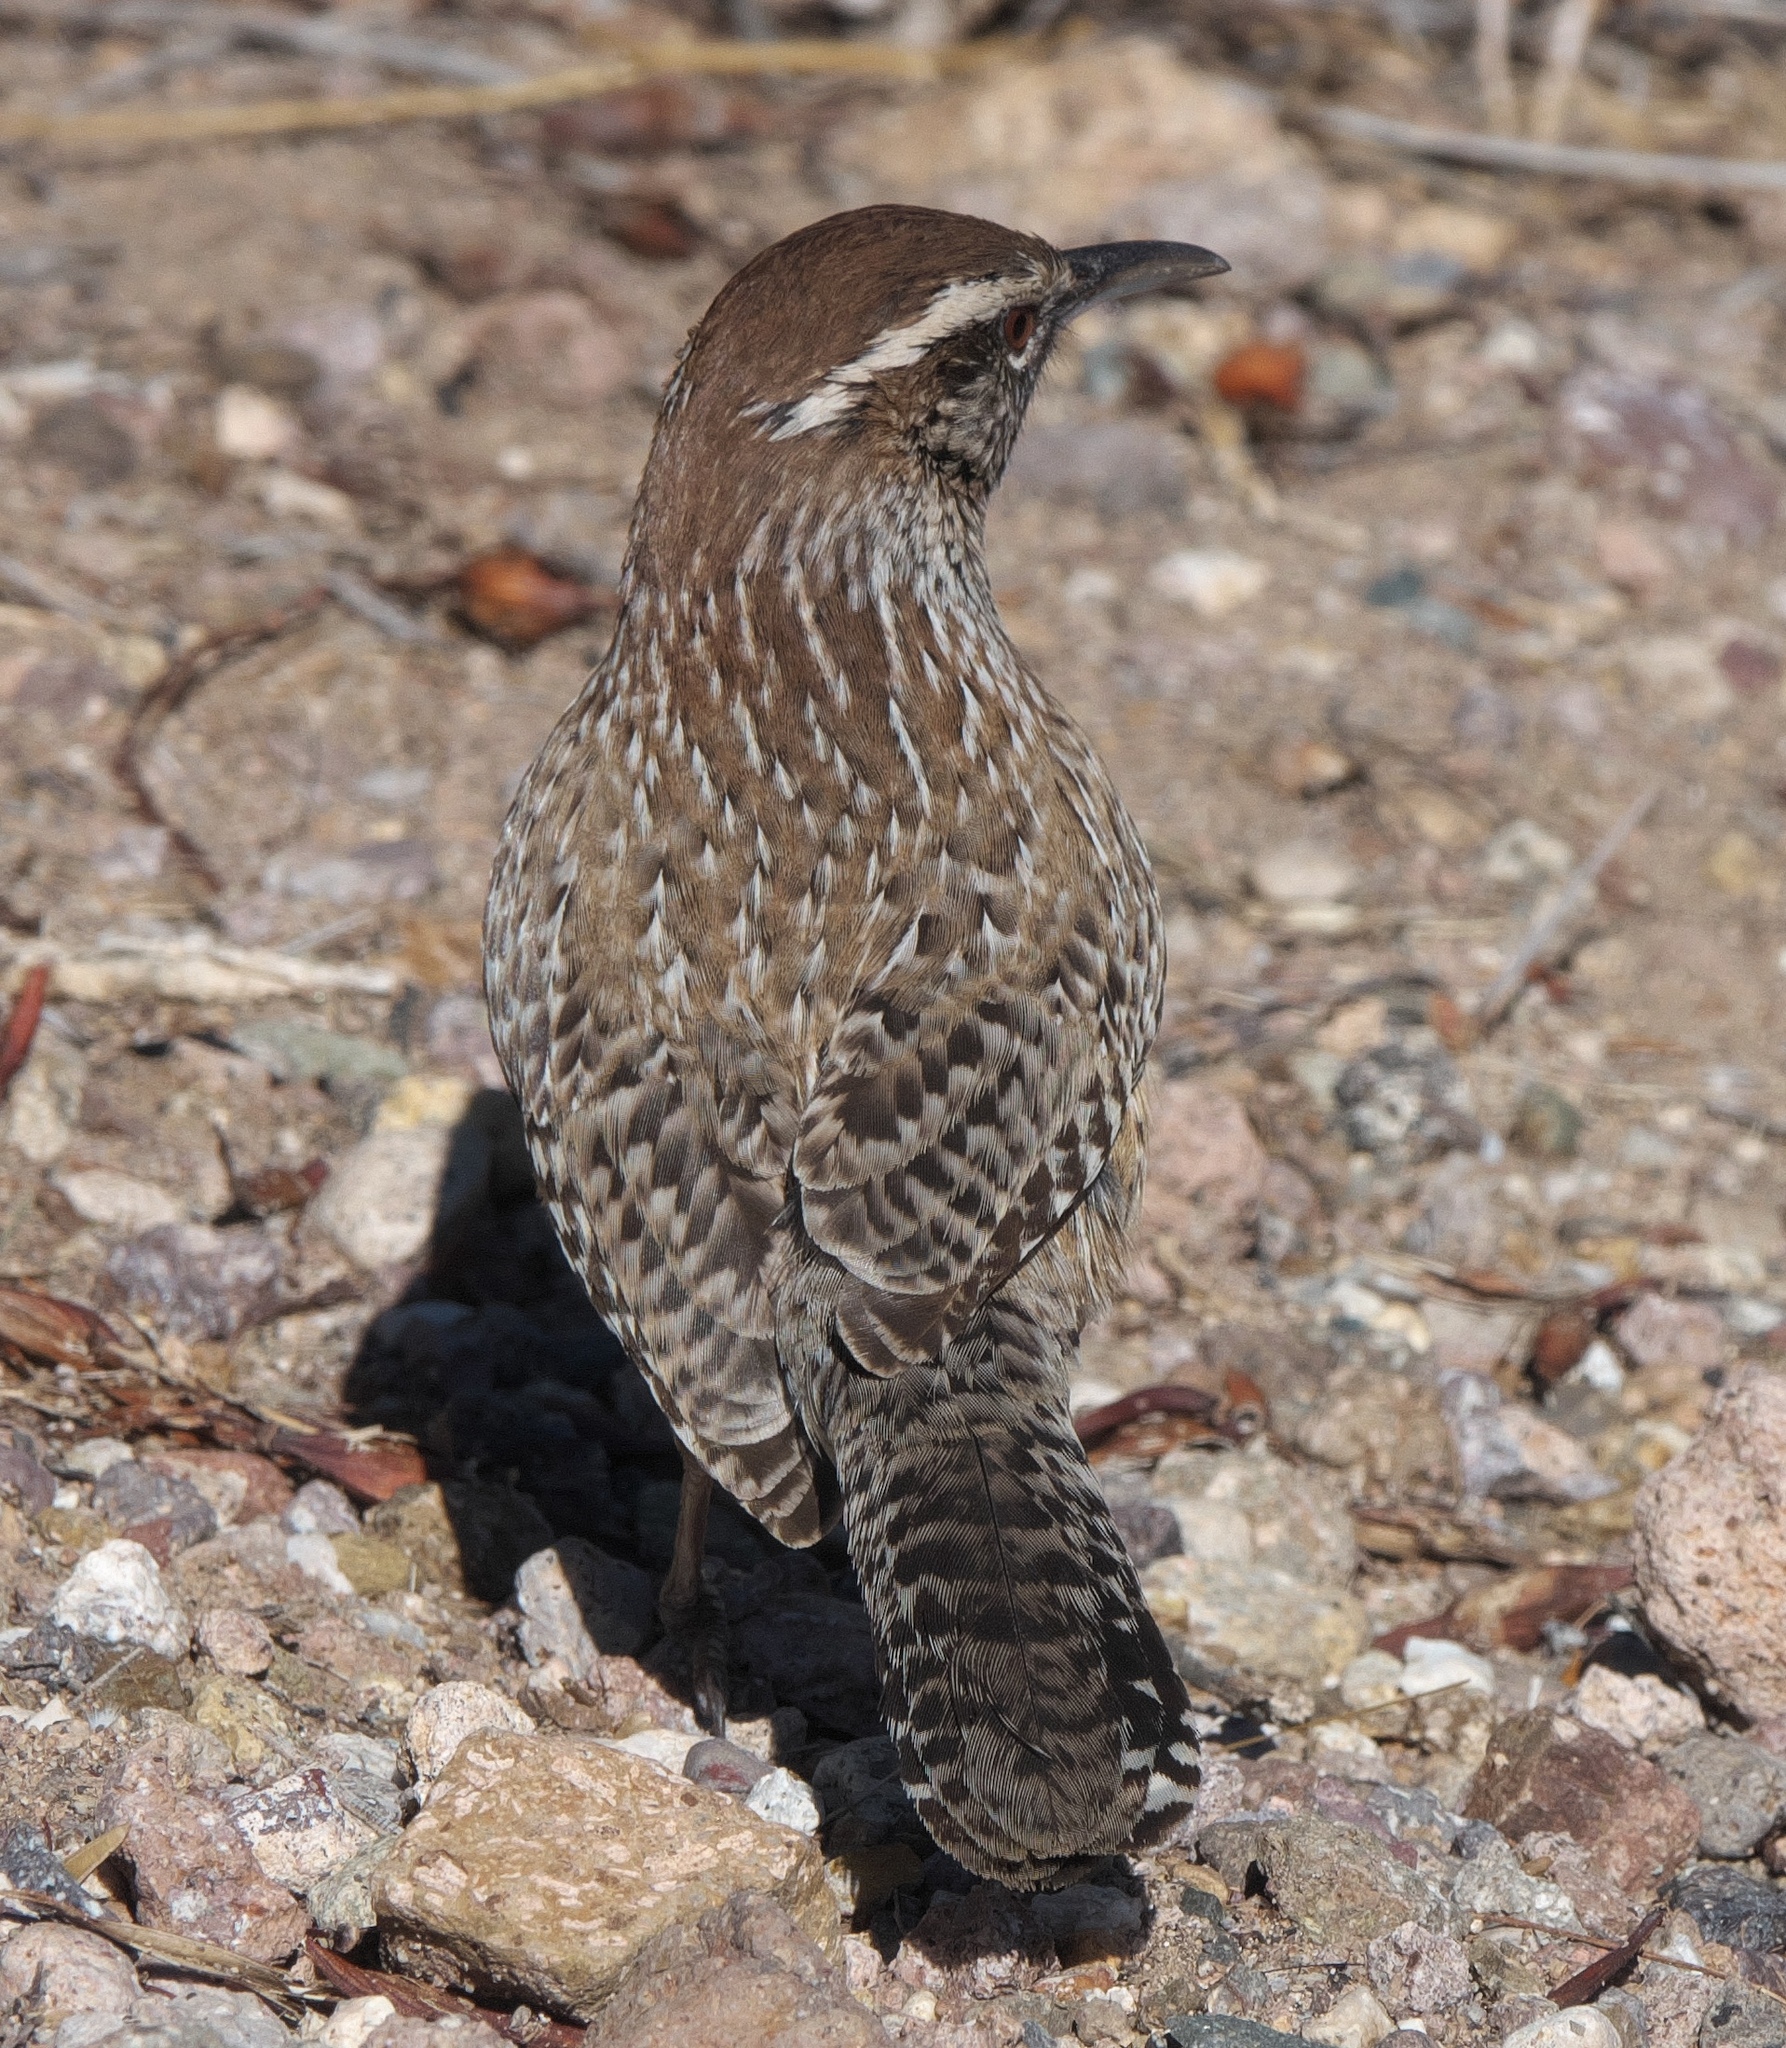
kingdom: Animalia
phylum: Chordata
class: Aves
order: Passeriformes
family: Troglodytidae
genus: Campylorhynchus
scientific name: Campylorhynchus brunneicapillus
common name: Cactus wren
